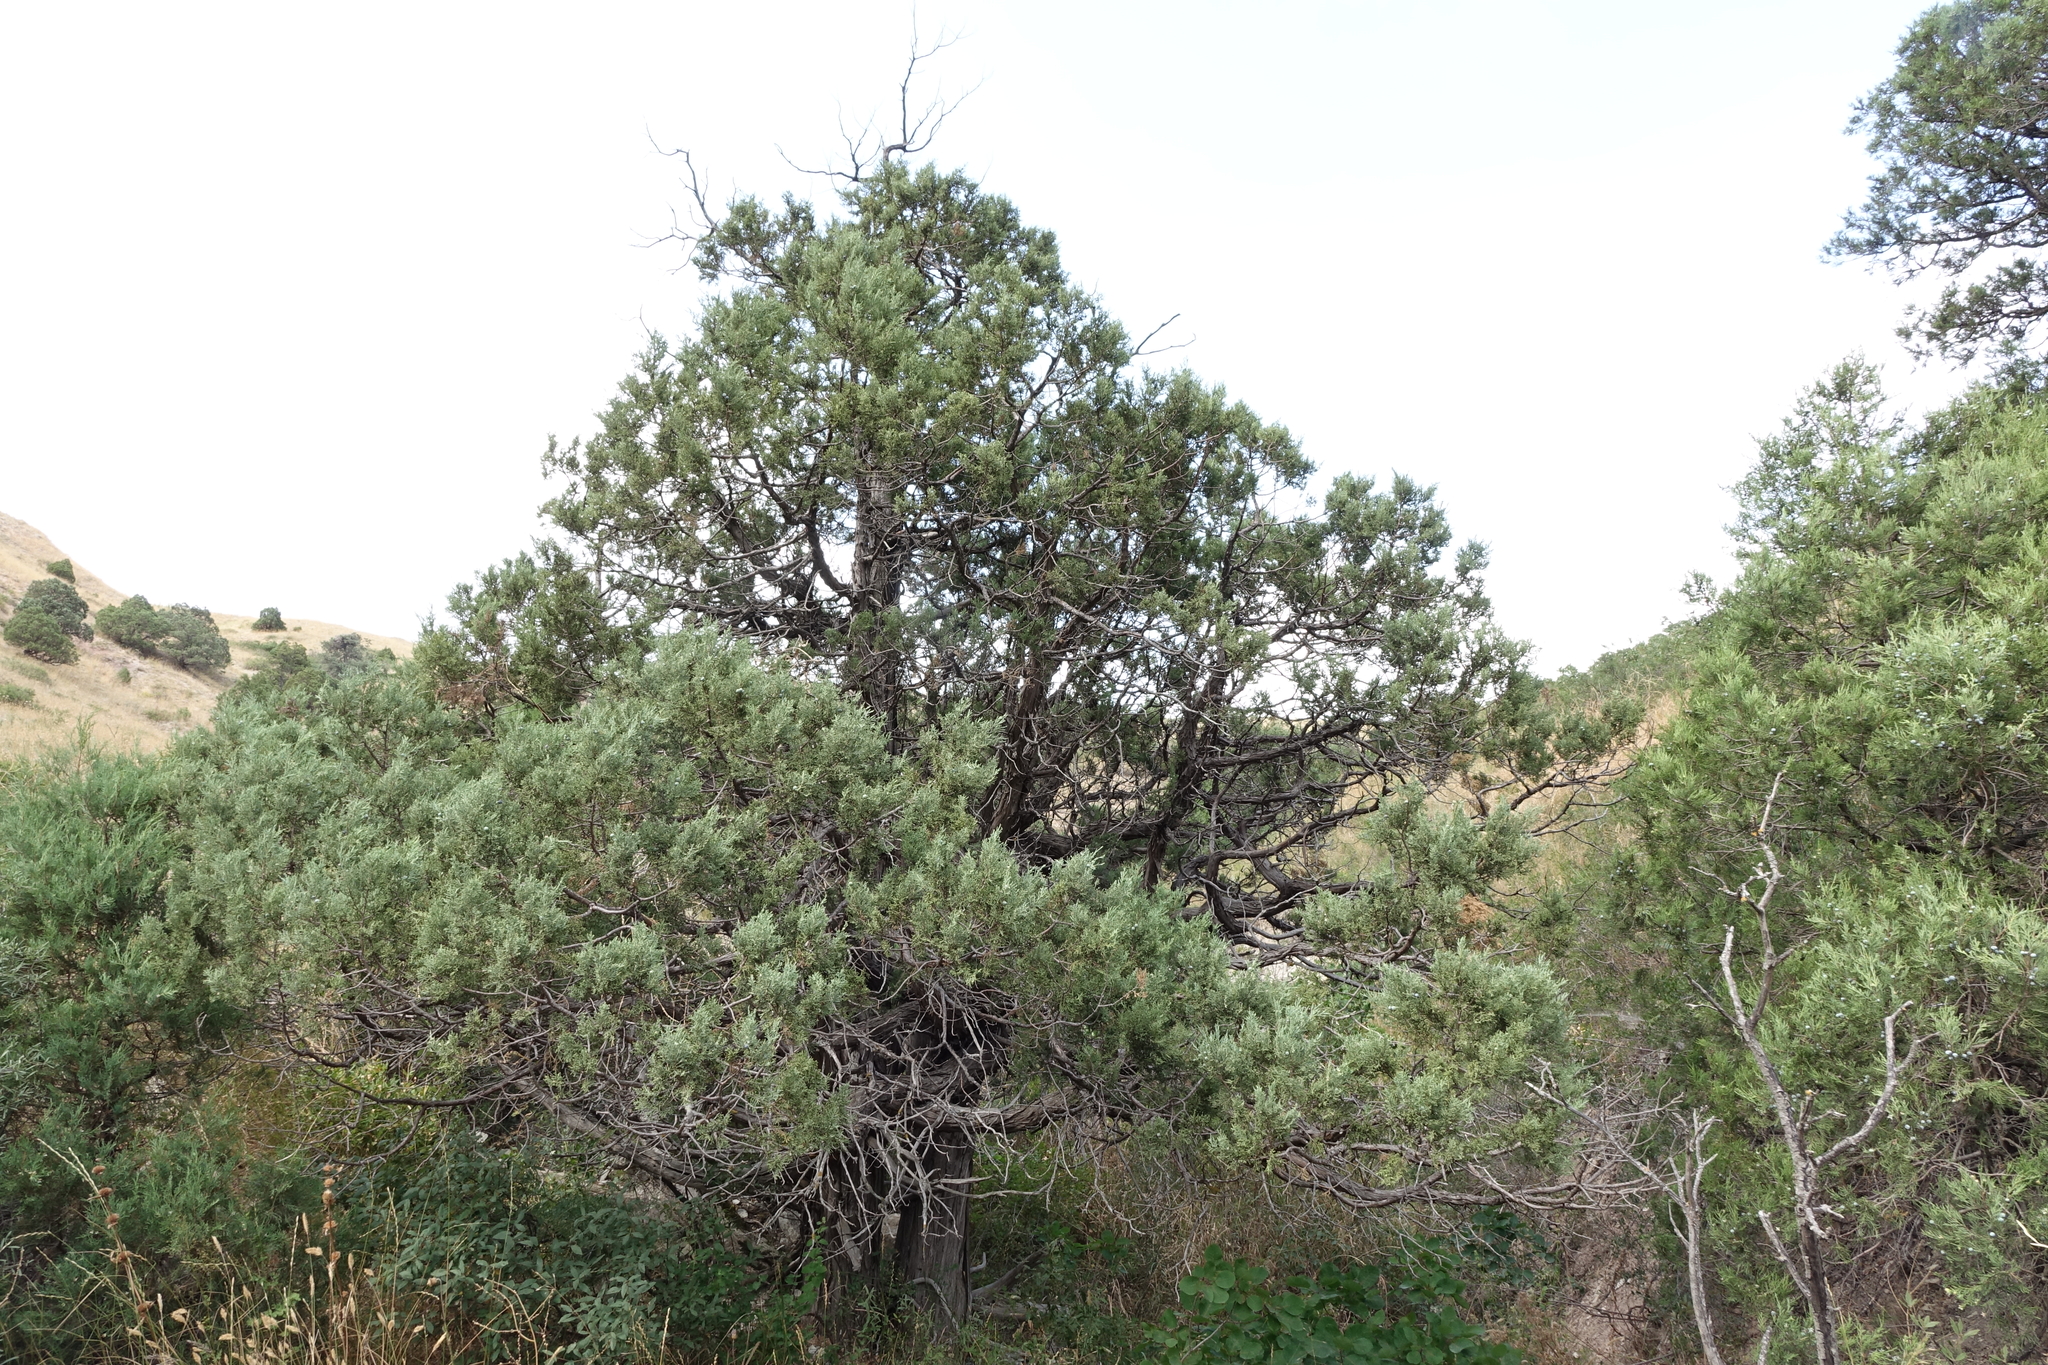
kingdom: Plantae
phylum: Tracheophyta
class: Pinopsida
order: Pinales
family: Cupressaceae
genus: Juniperus
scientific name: Juniperus excelsa
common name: Crimean juniper
